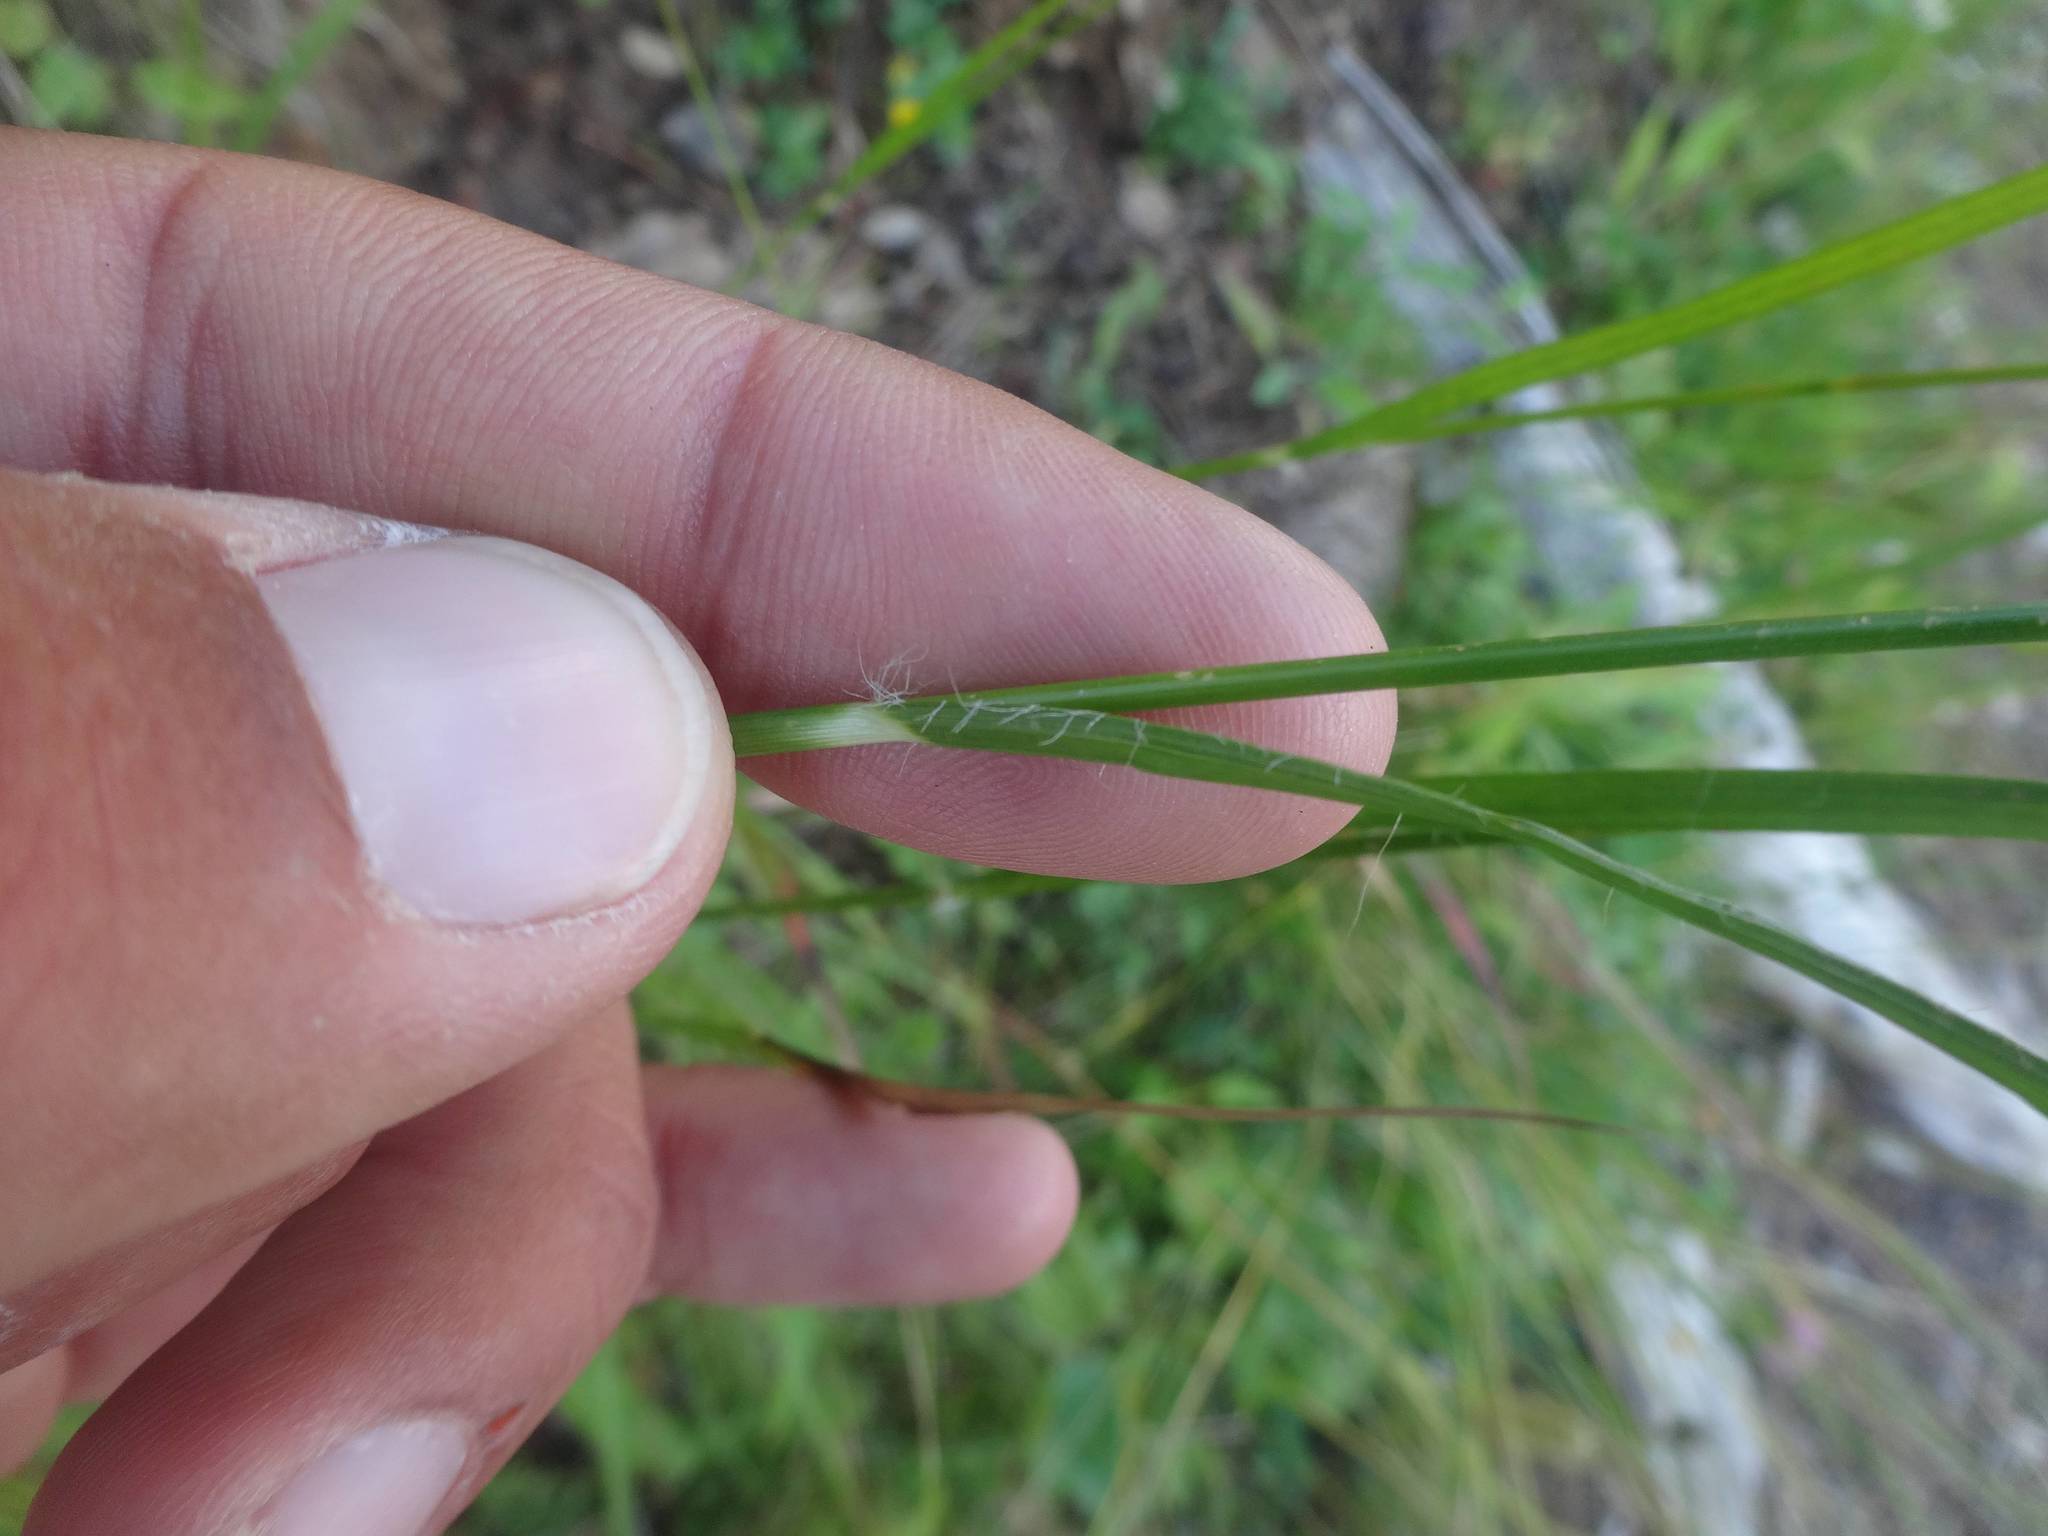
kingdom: Plantae
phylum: Tracheophyta
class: Liliopsida
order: Poales
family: Juncaceae
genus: Luzula
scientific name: Luzula nivea
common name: Snow-white wood-rush
